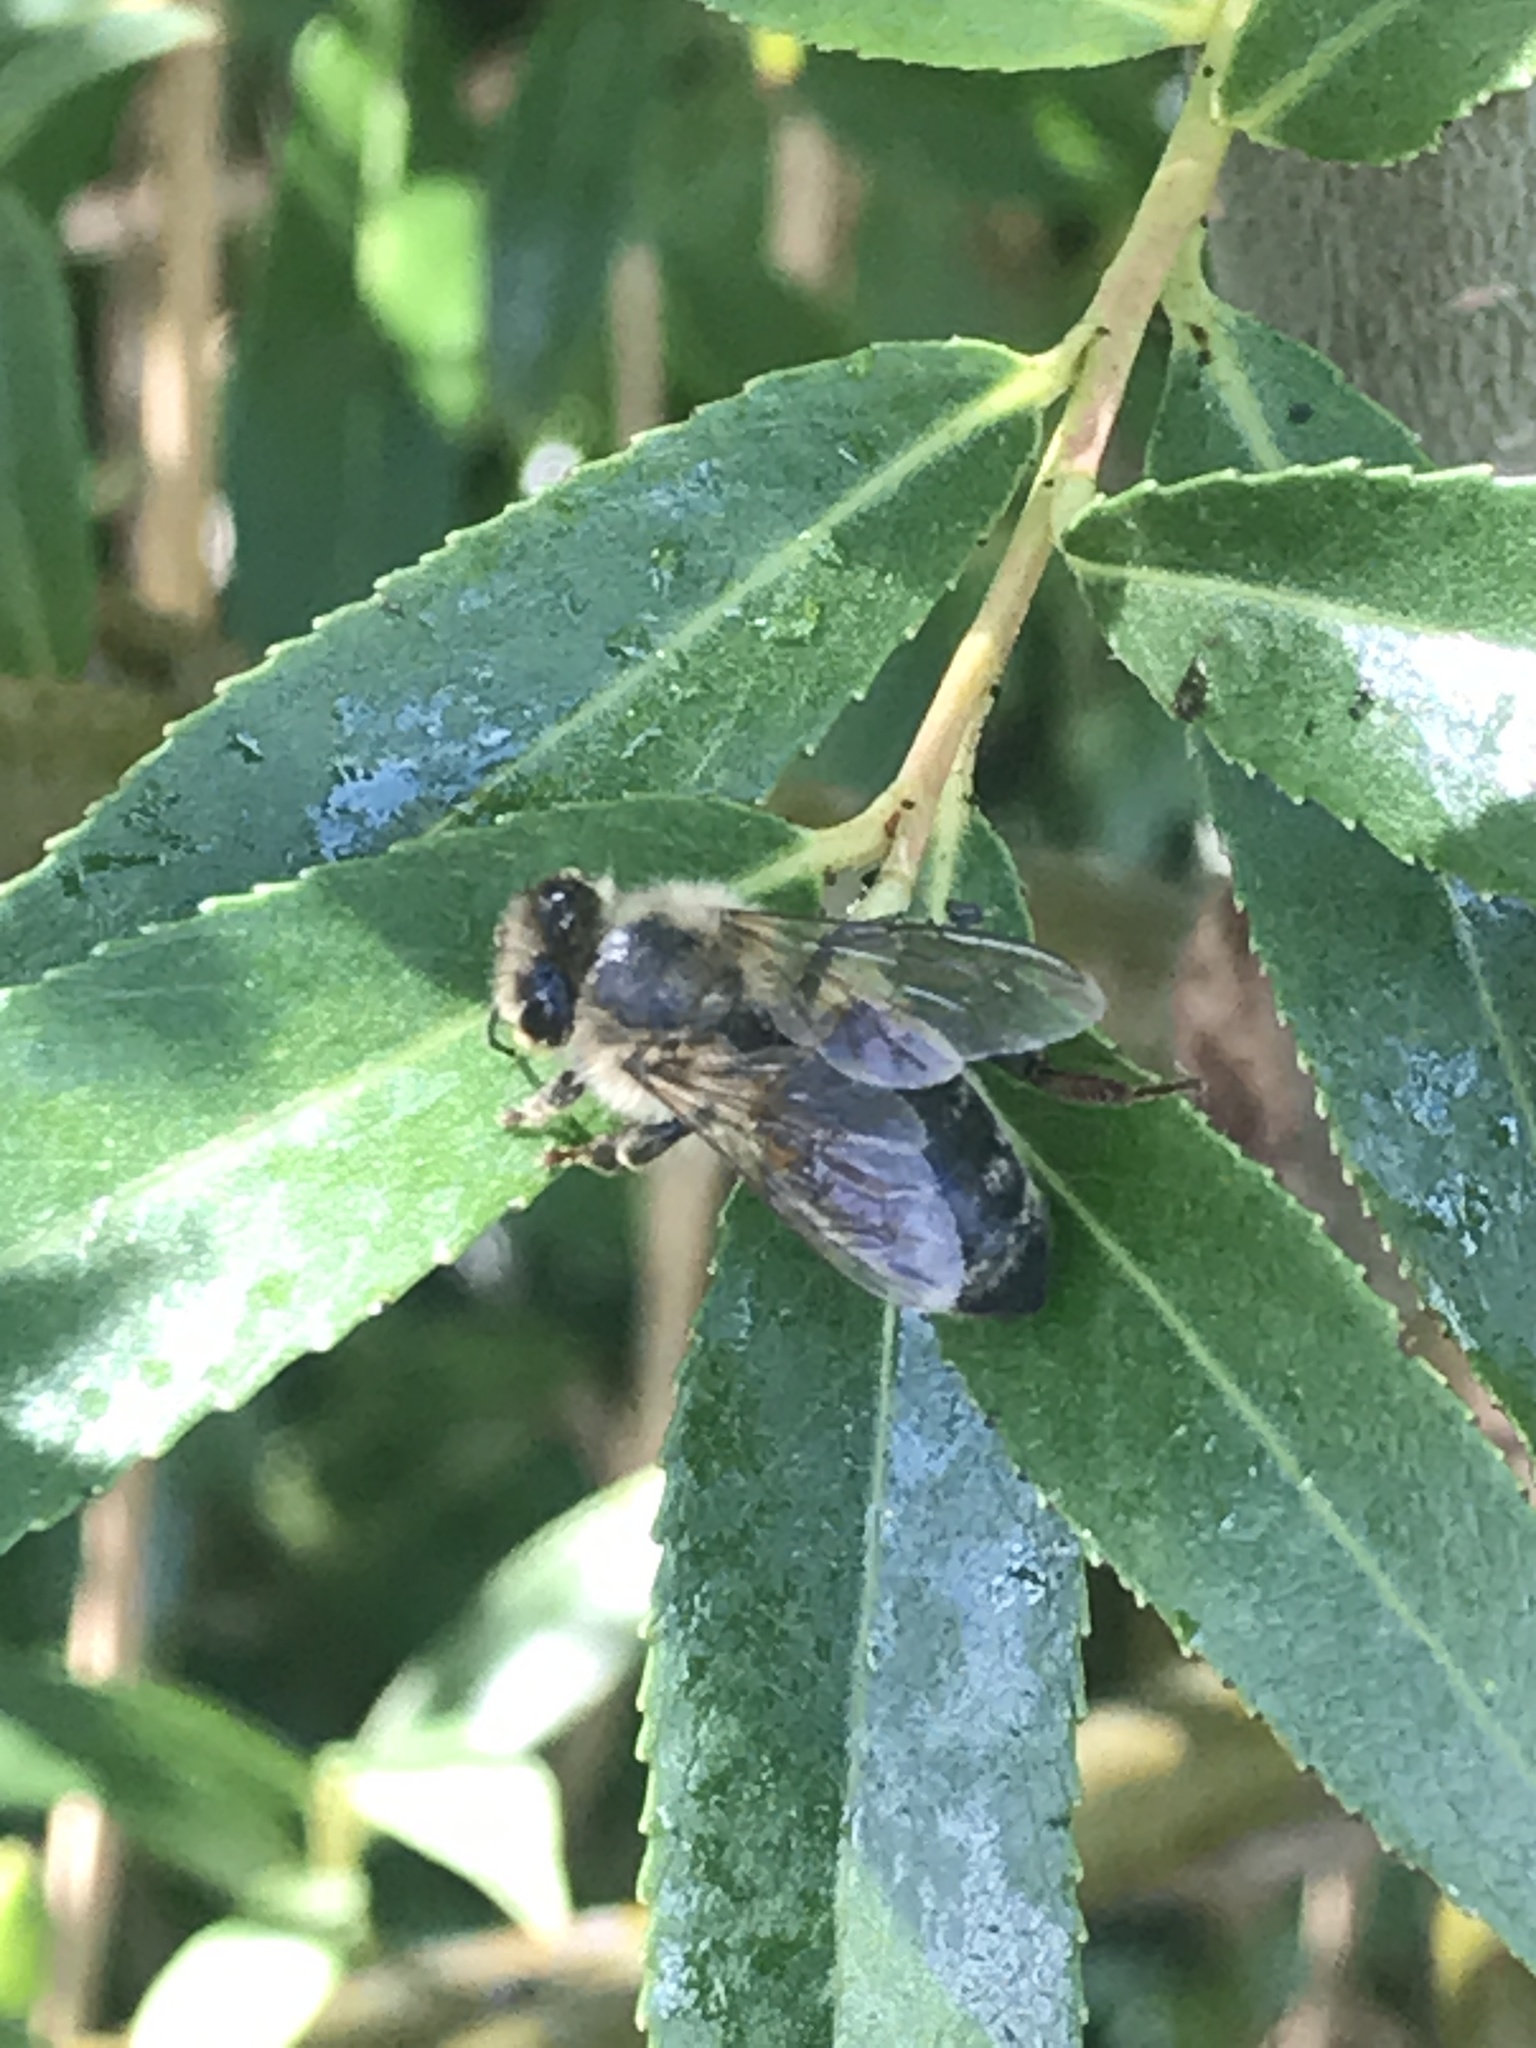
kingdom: Animalia
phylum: Arthropoda
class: Insecta
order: Hymenoptera
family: Apidae
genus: Apis
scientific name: Apis mellifera
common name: Honey bee
